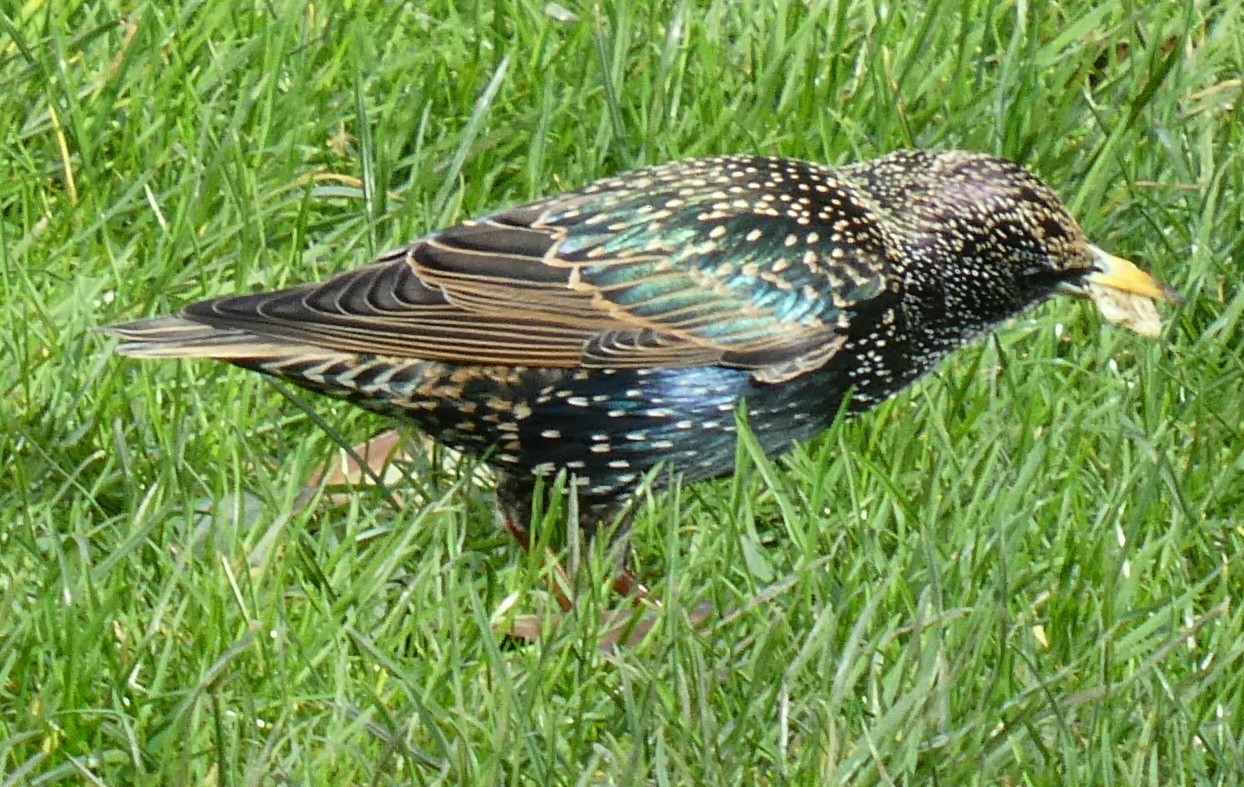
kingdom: Animalia
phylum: Chordata
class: Aves
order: Passeriformes
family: Sturnidae
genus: Sturnus
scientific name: Sturnus vulgaris
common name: Common starling
